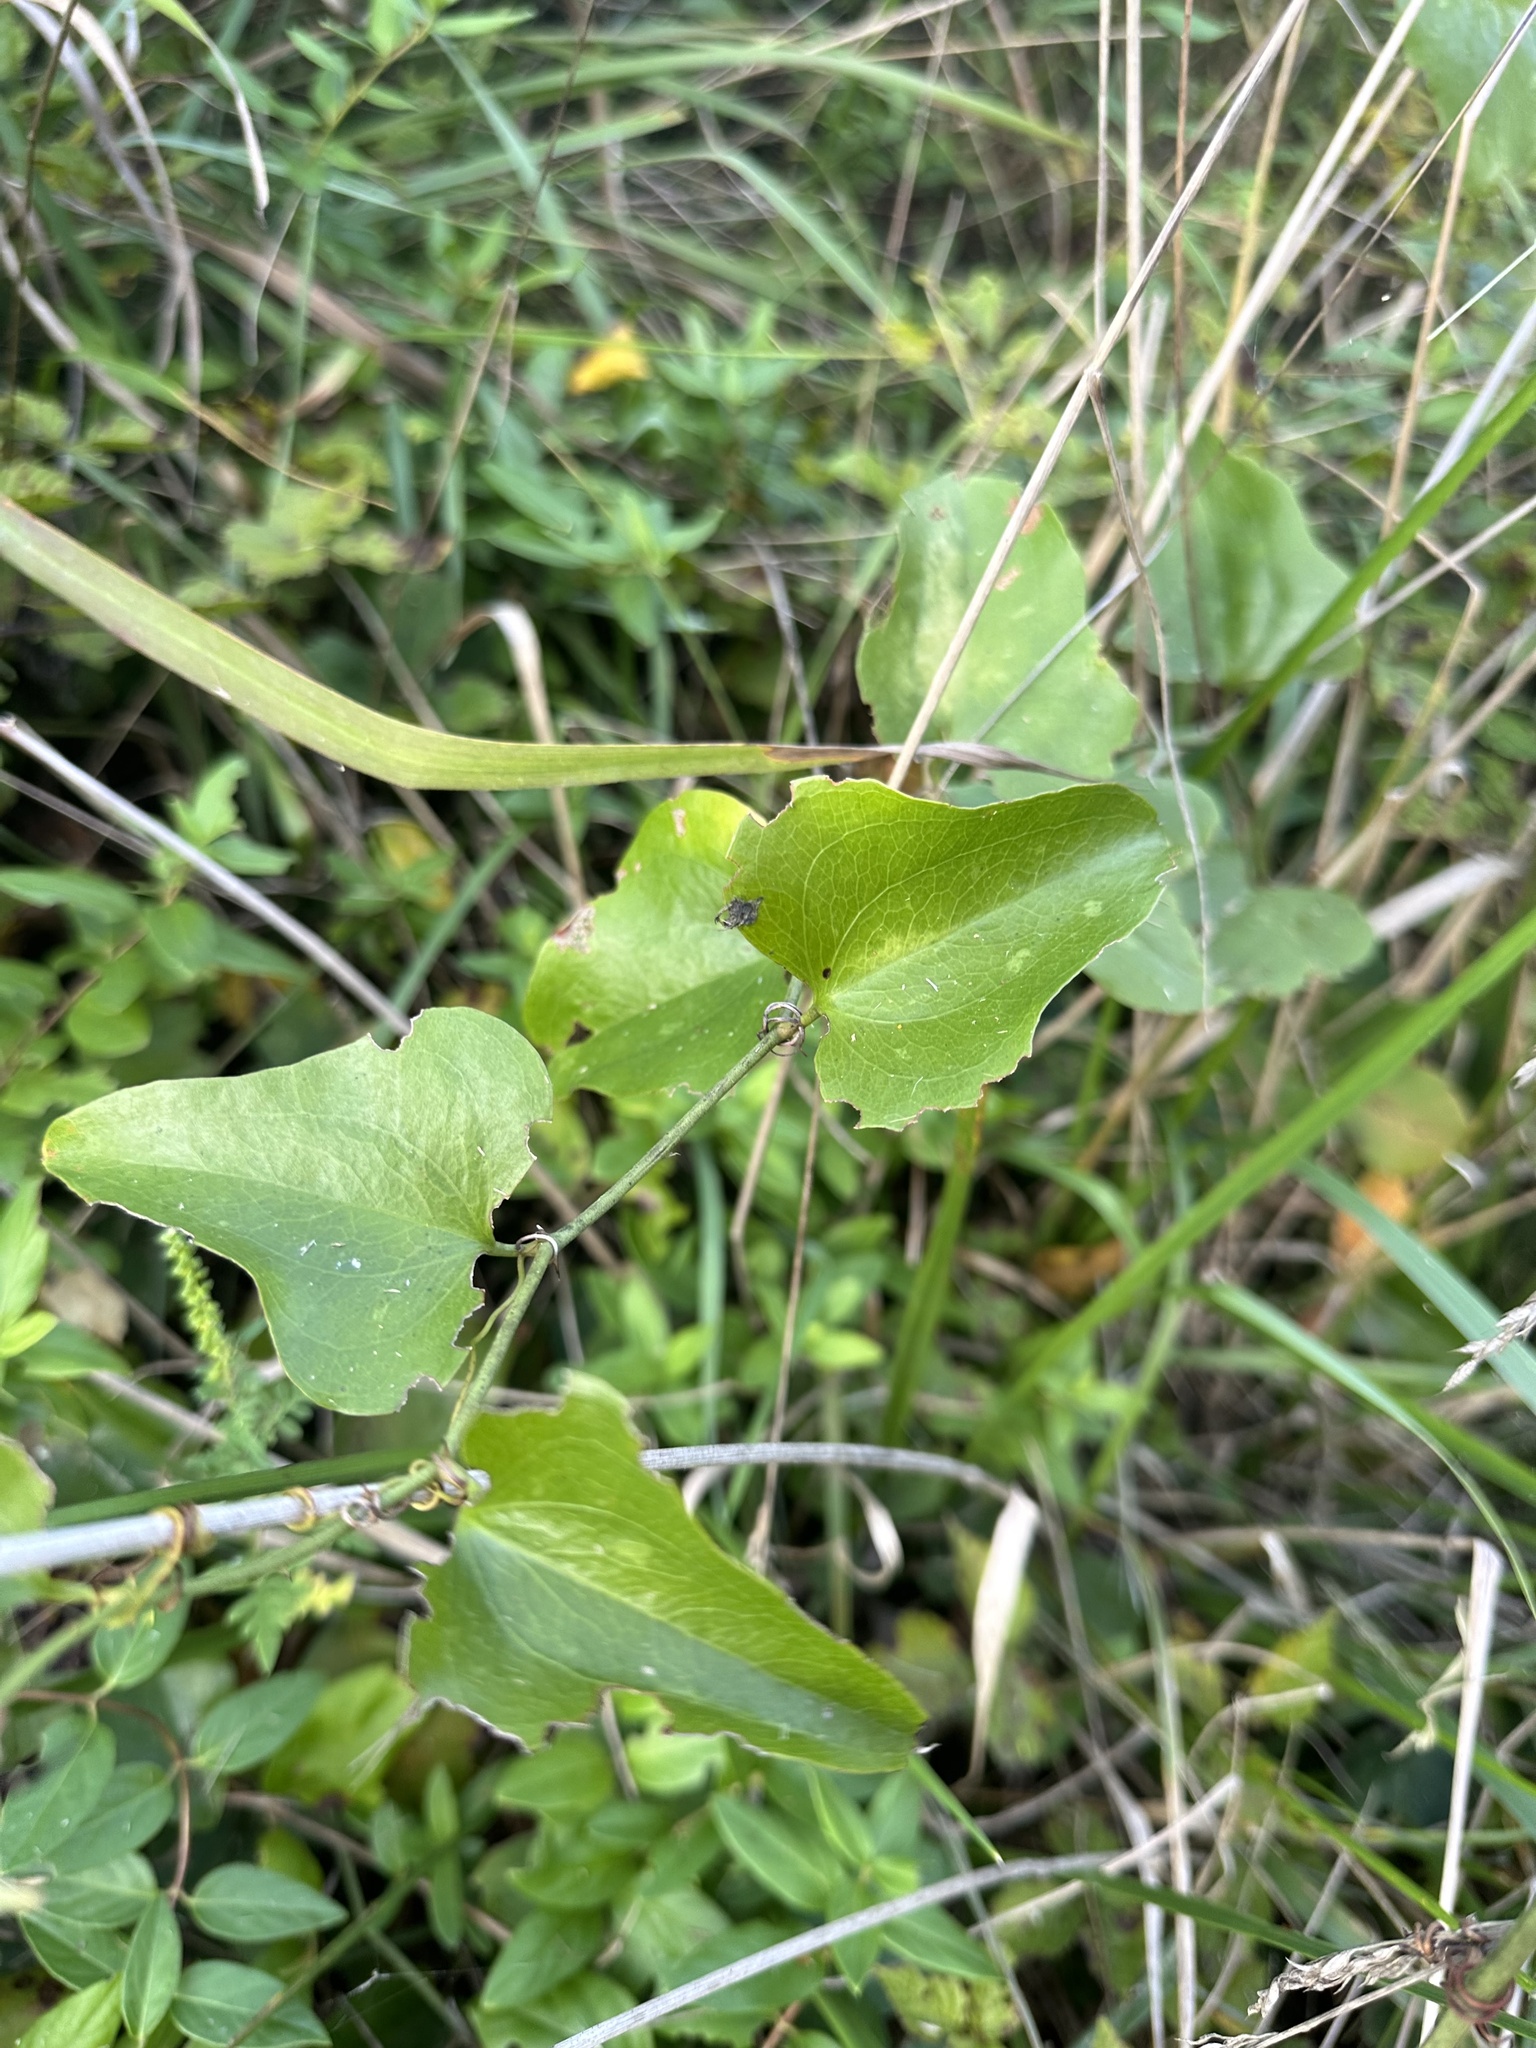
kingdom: Plantae
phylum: Tracheophyta
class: Liliopsida
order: Liliales
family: Smilacaceae
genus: Smilax
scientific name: Smilax bona-nox
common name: Catbrier
